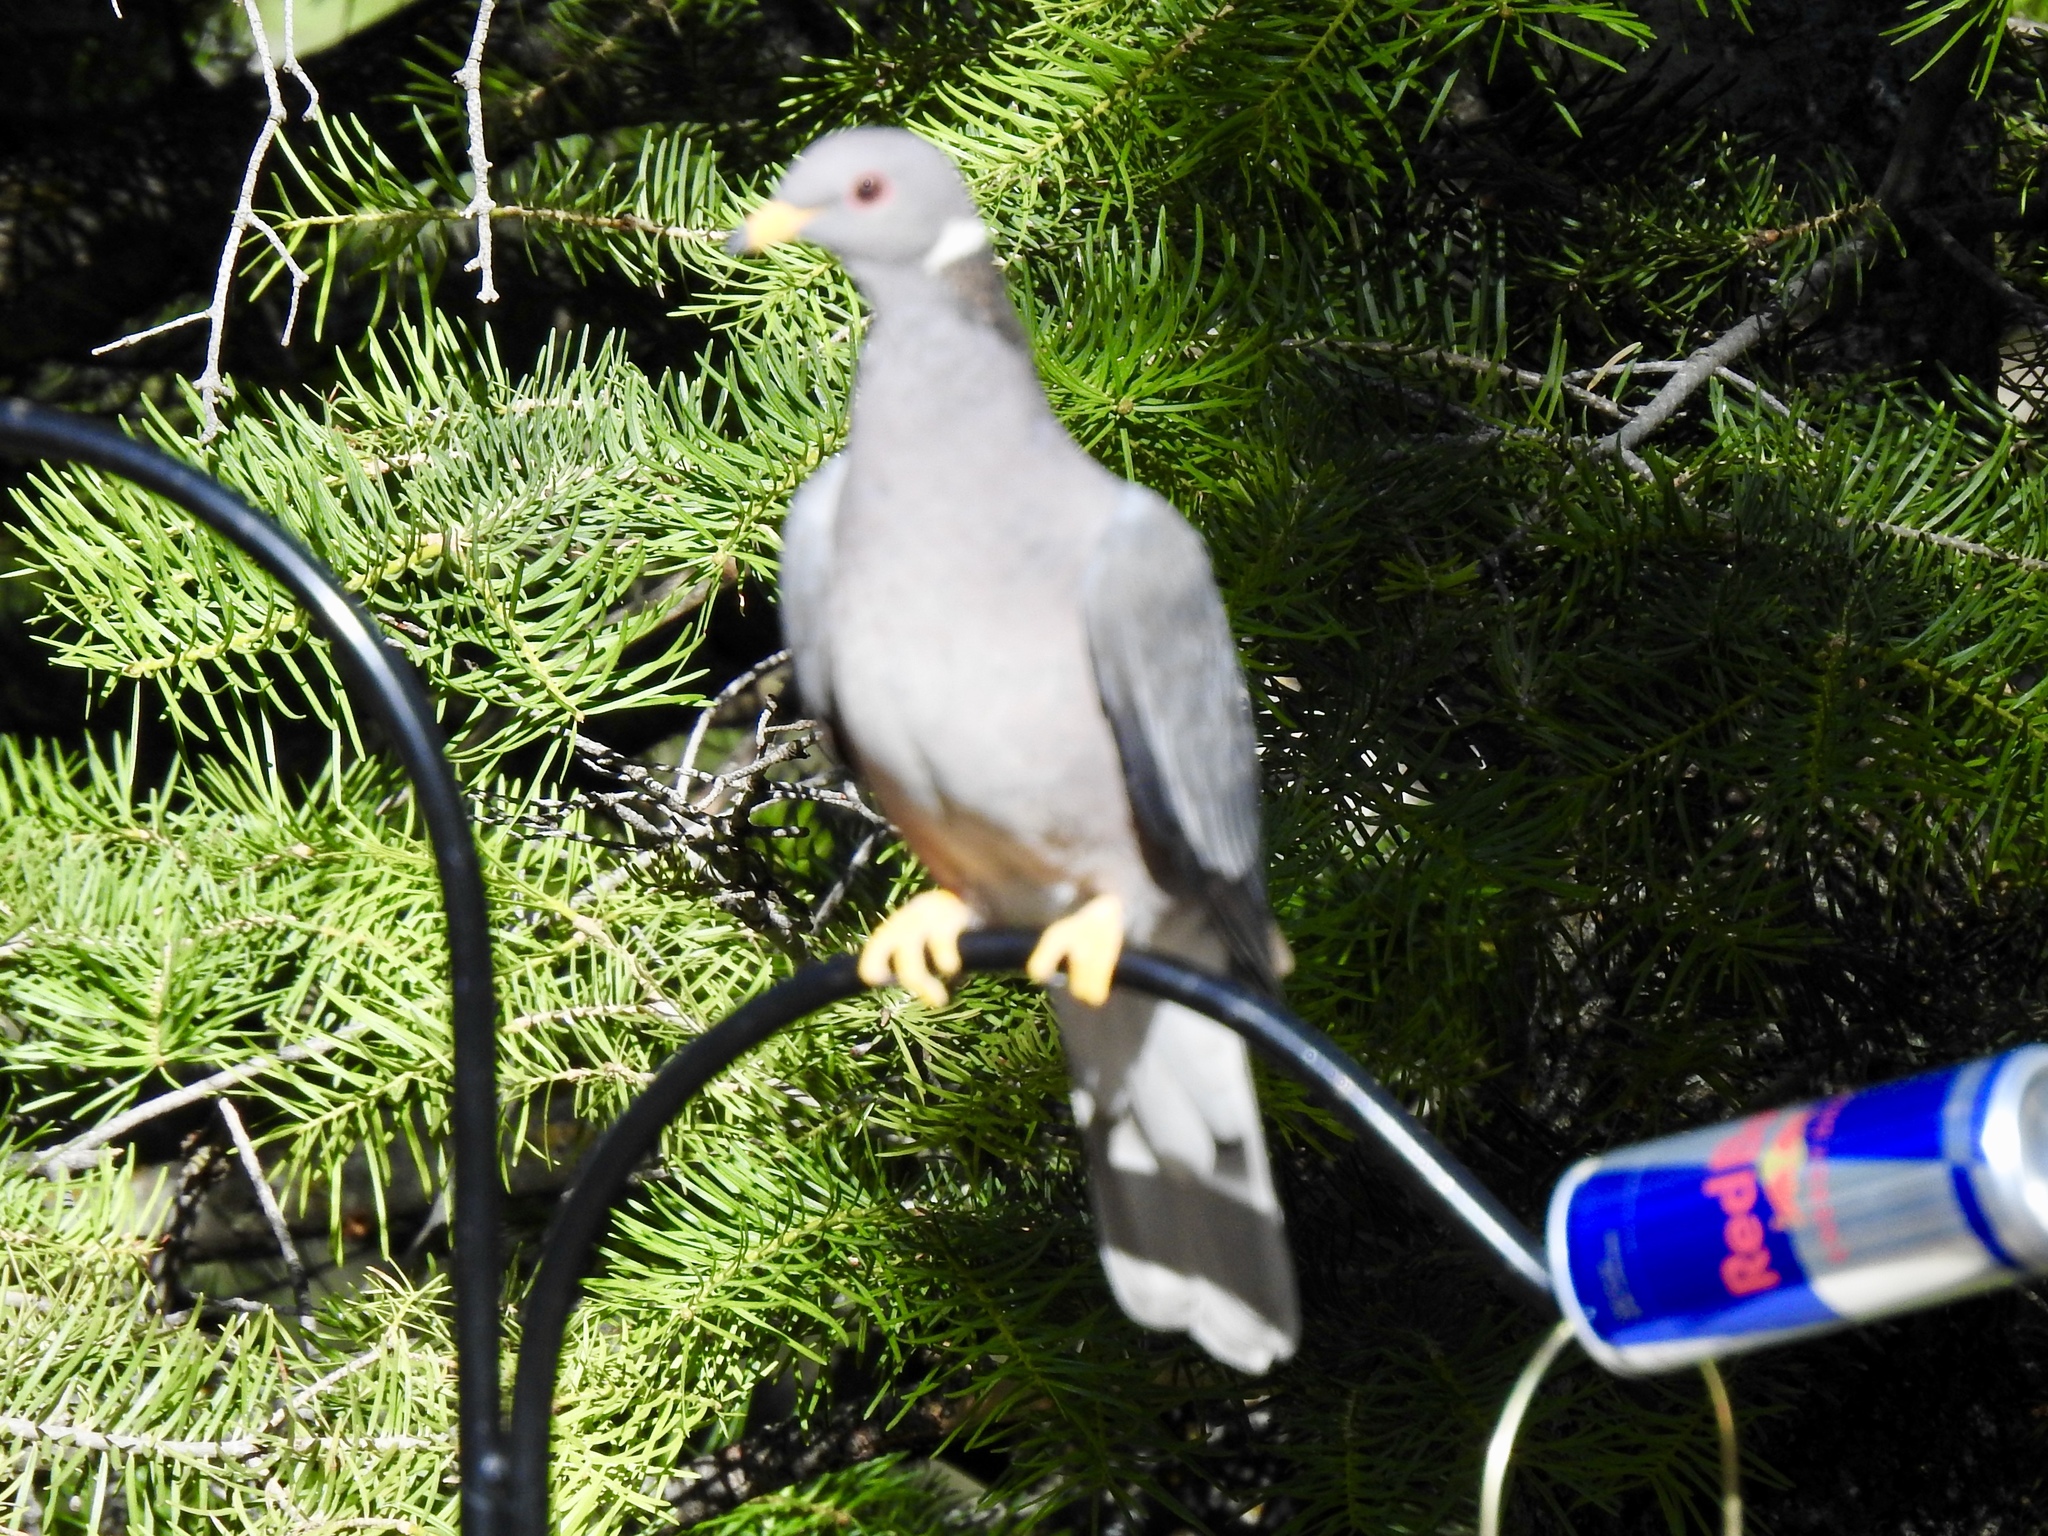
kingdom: Animalia
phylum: Chordata
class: Aves
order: Columbiformes
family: Columbidae
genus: Patagioenas
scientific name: Patagioenas fasciata
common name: Band-tailed pigeon
